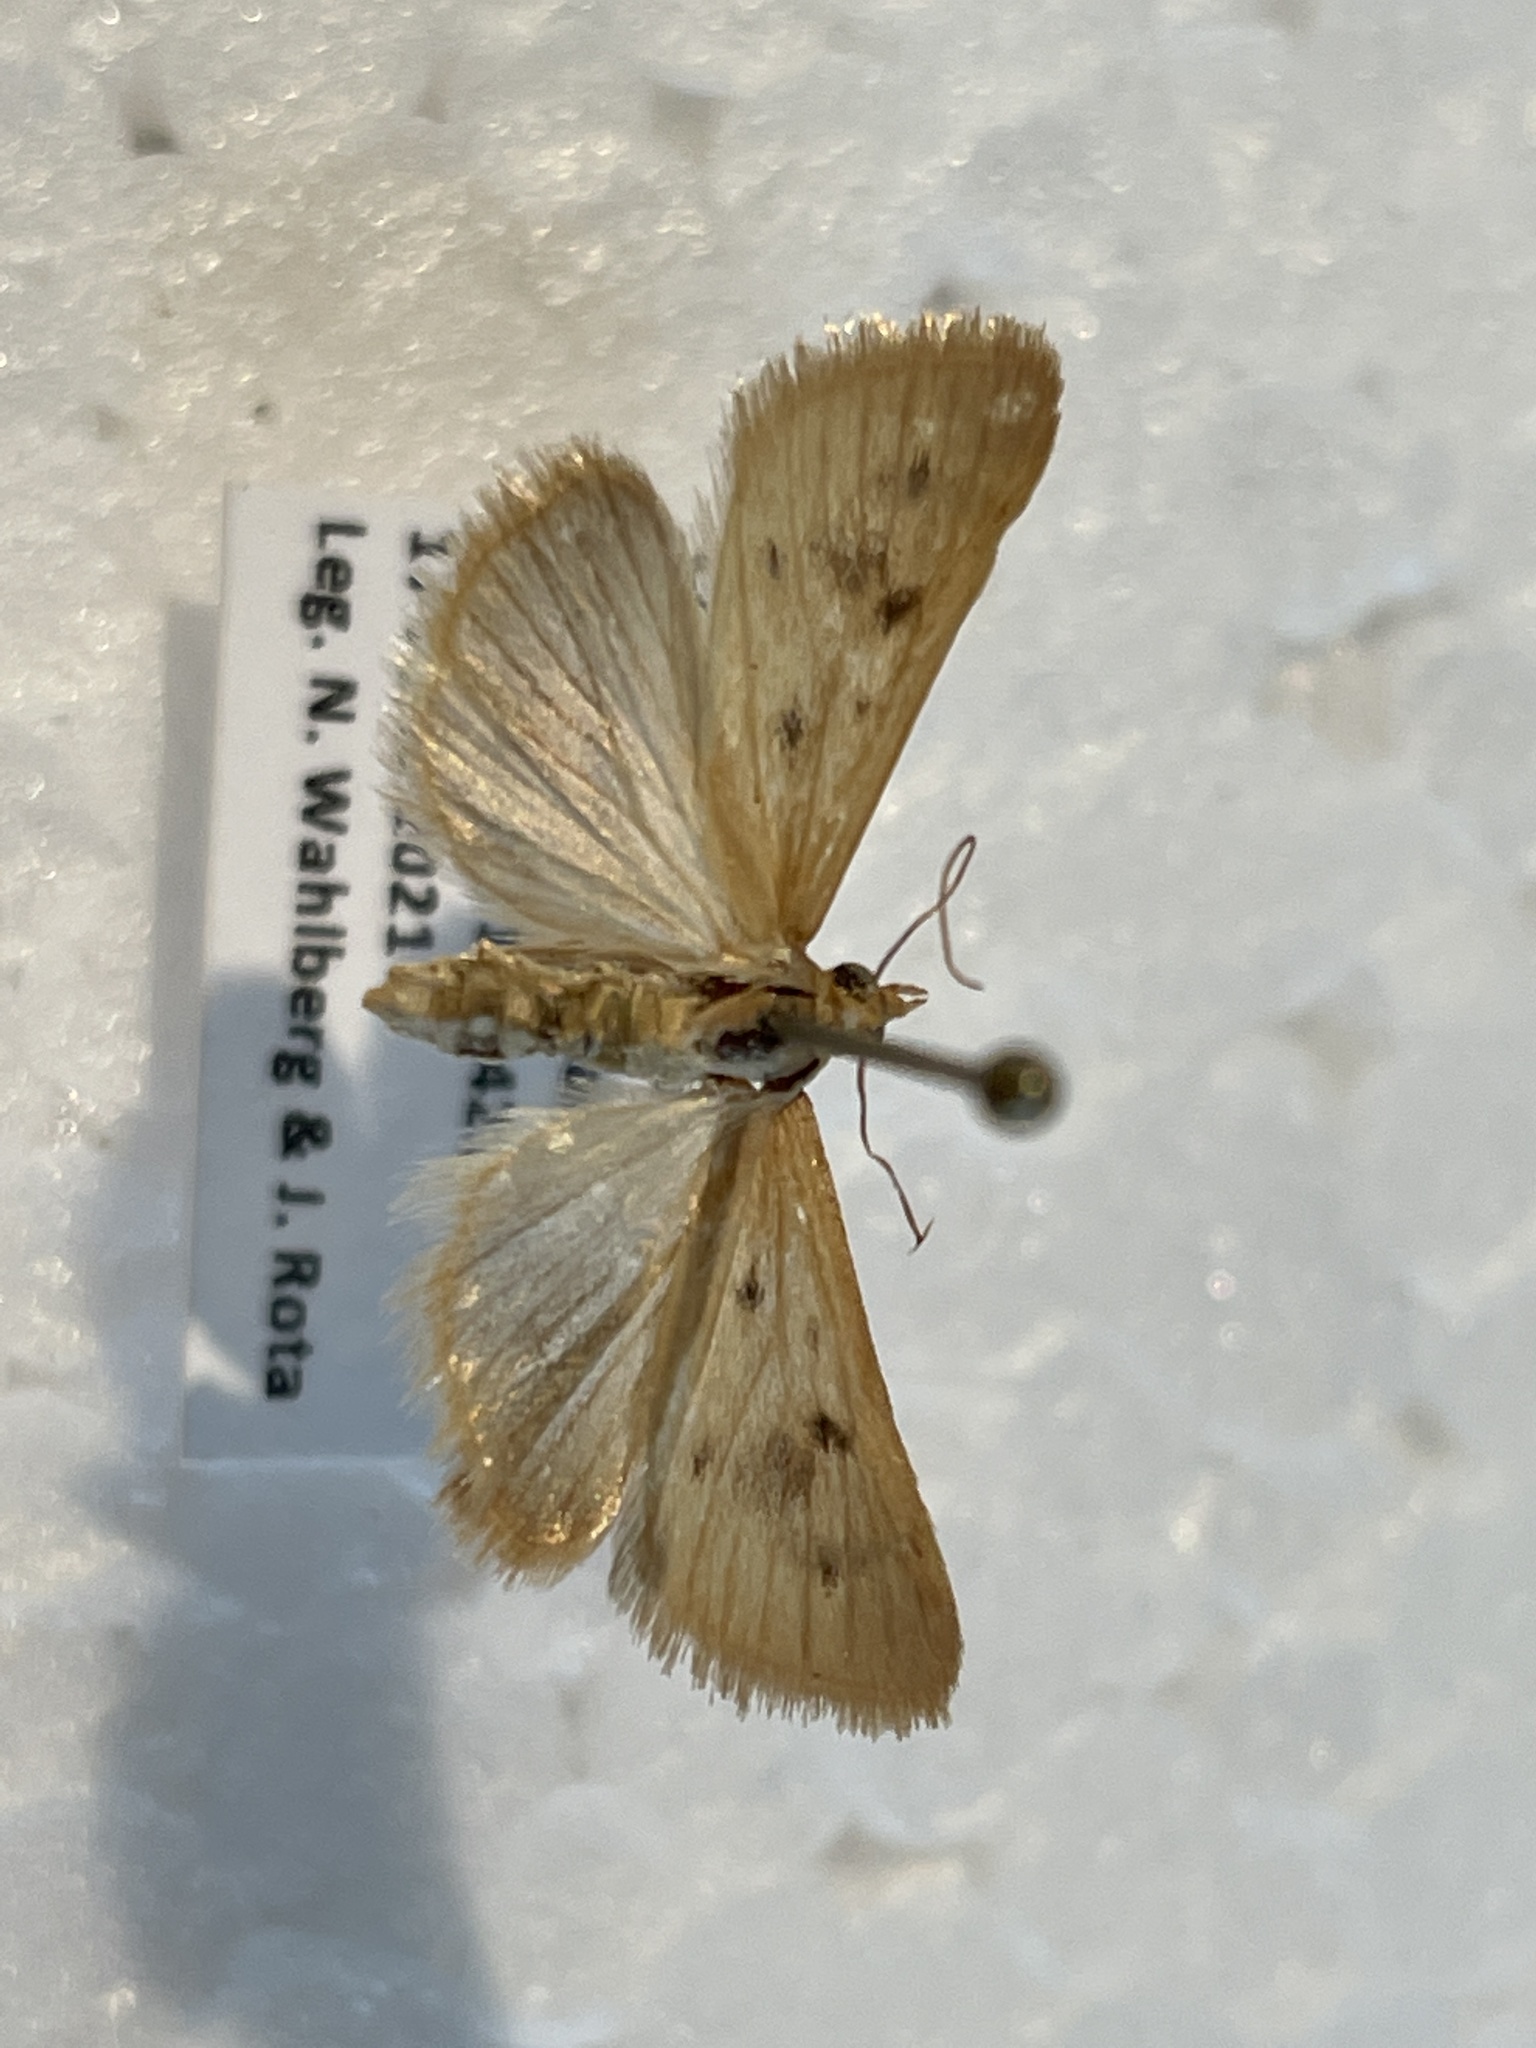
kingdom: Animalia
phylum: Arthropoda
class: Insecta
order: Lepidoptera
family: Crambidae
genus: Achyra
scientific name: Achyra nudalis
